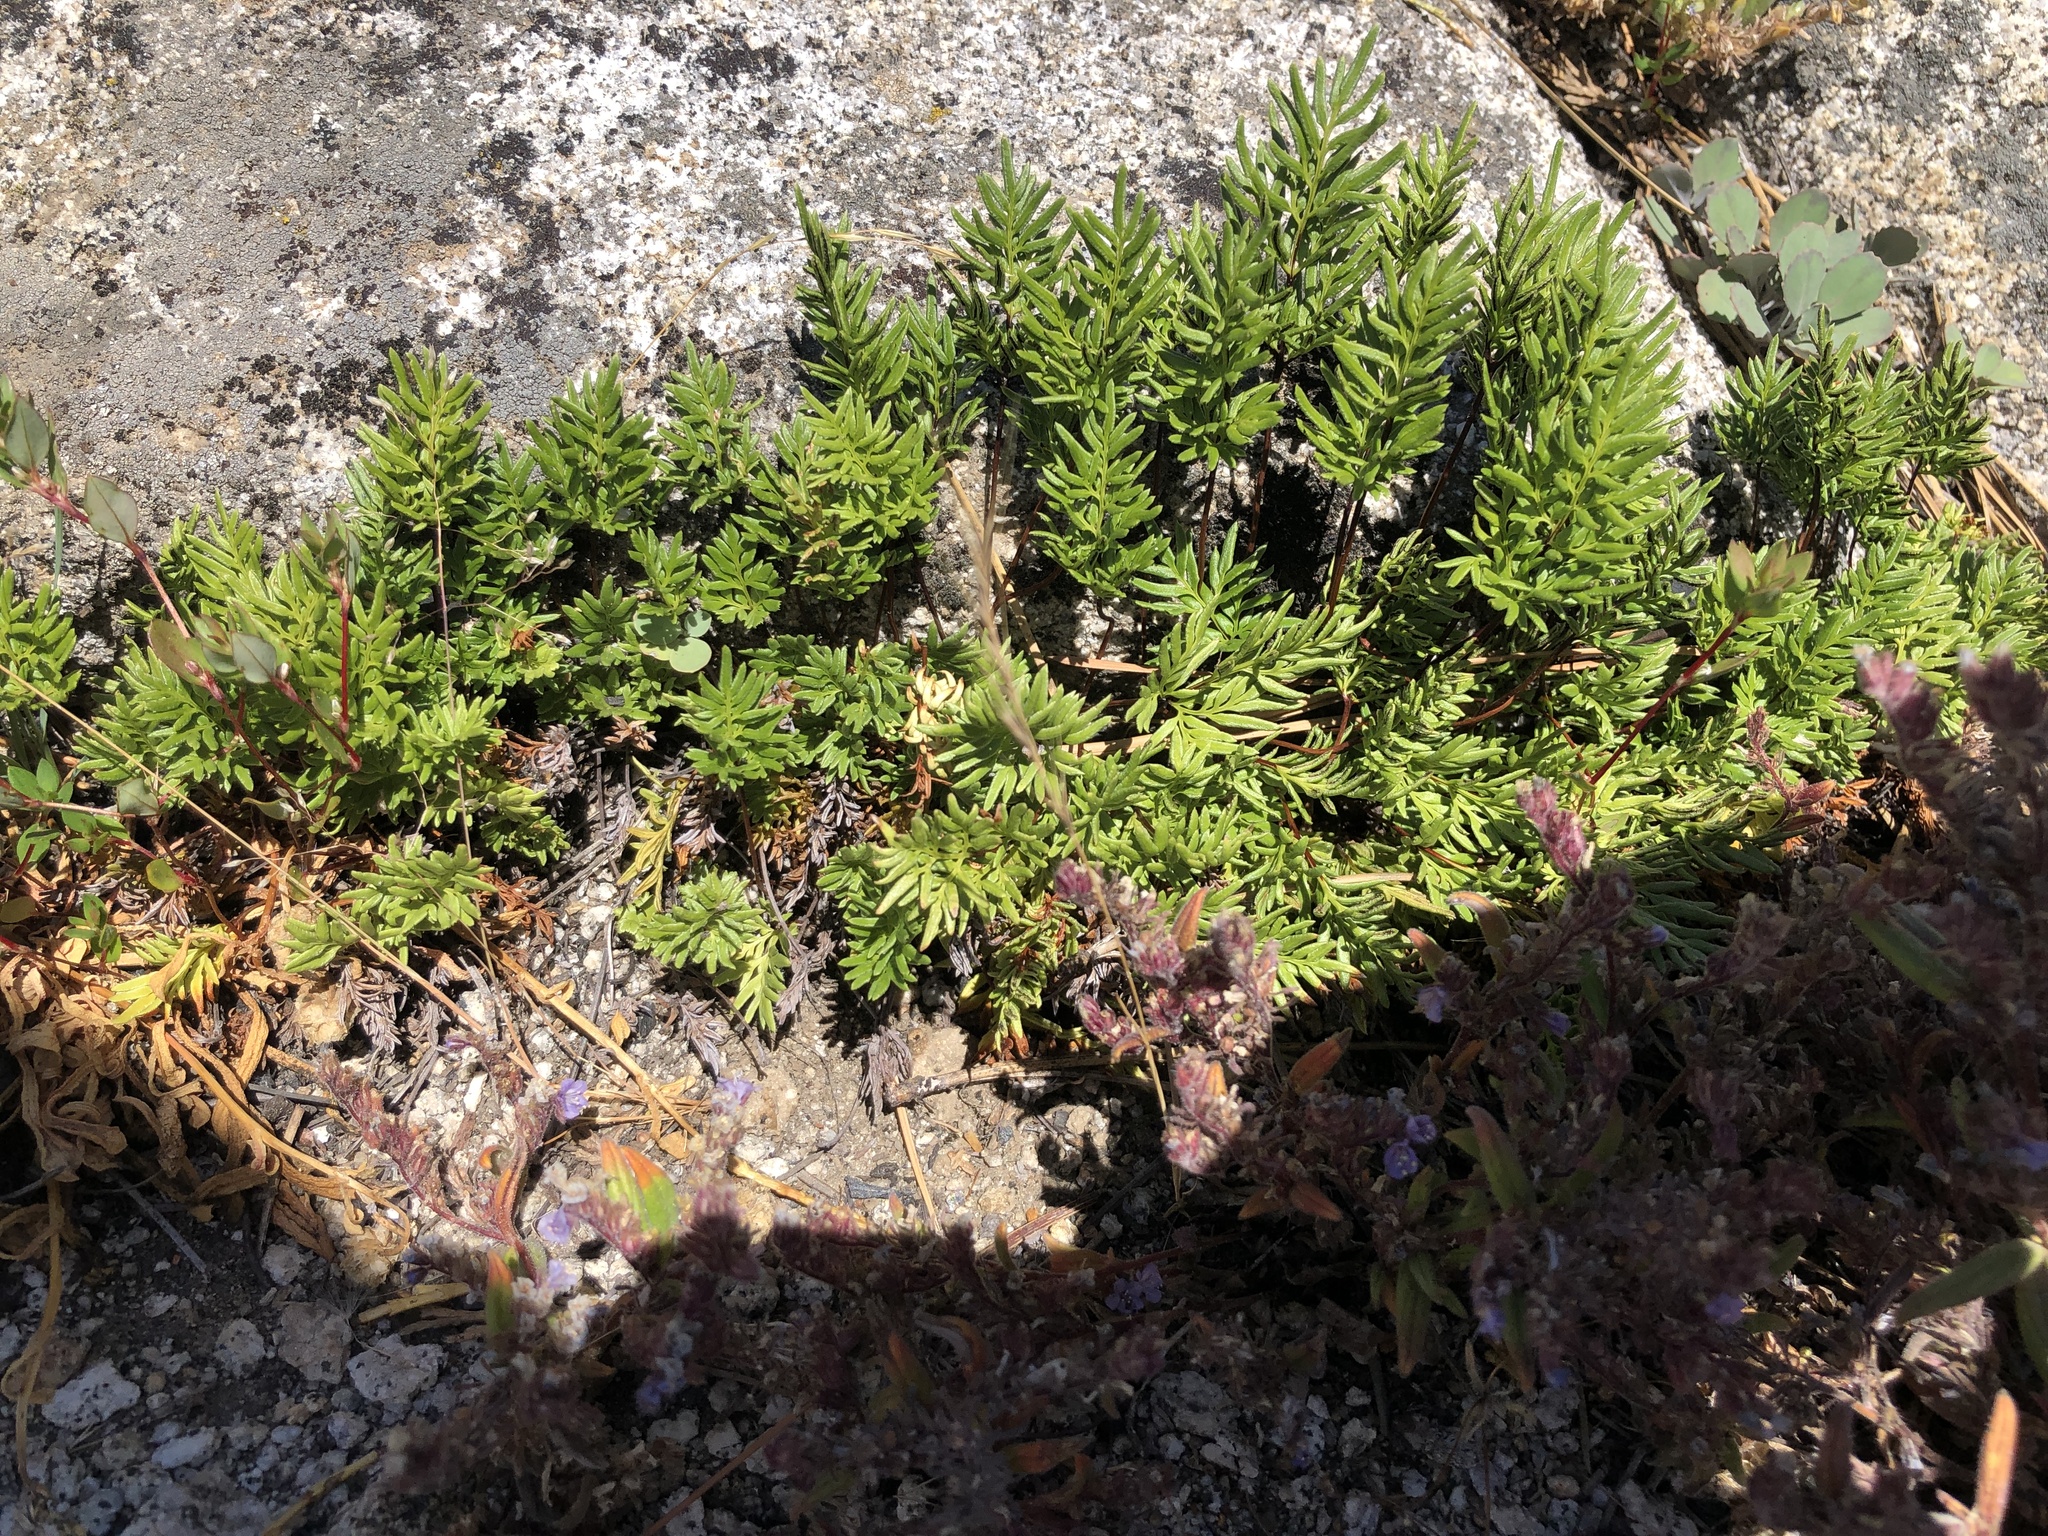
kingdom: Plantae
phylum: Tracheophyta
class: Polypodiopsida
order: Polypodiales
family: Pteridaceae
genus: Aspidotis
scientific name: Aspidotis densa
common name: Indian's dream
